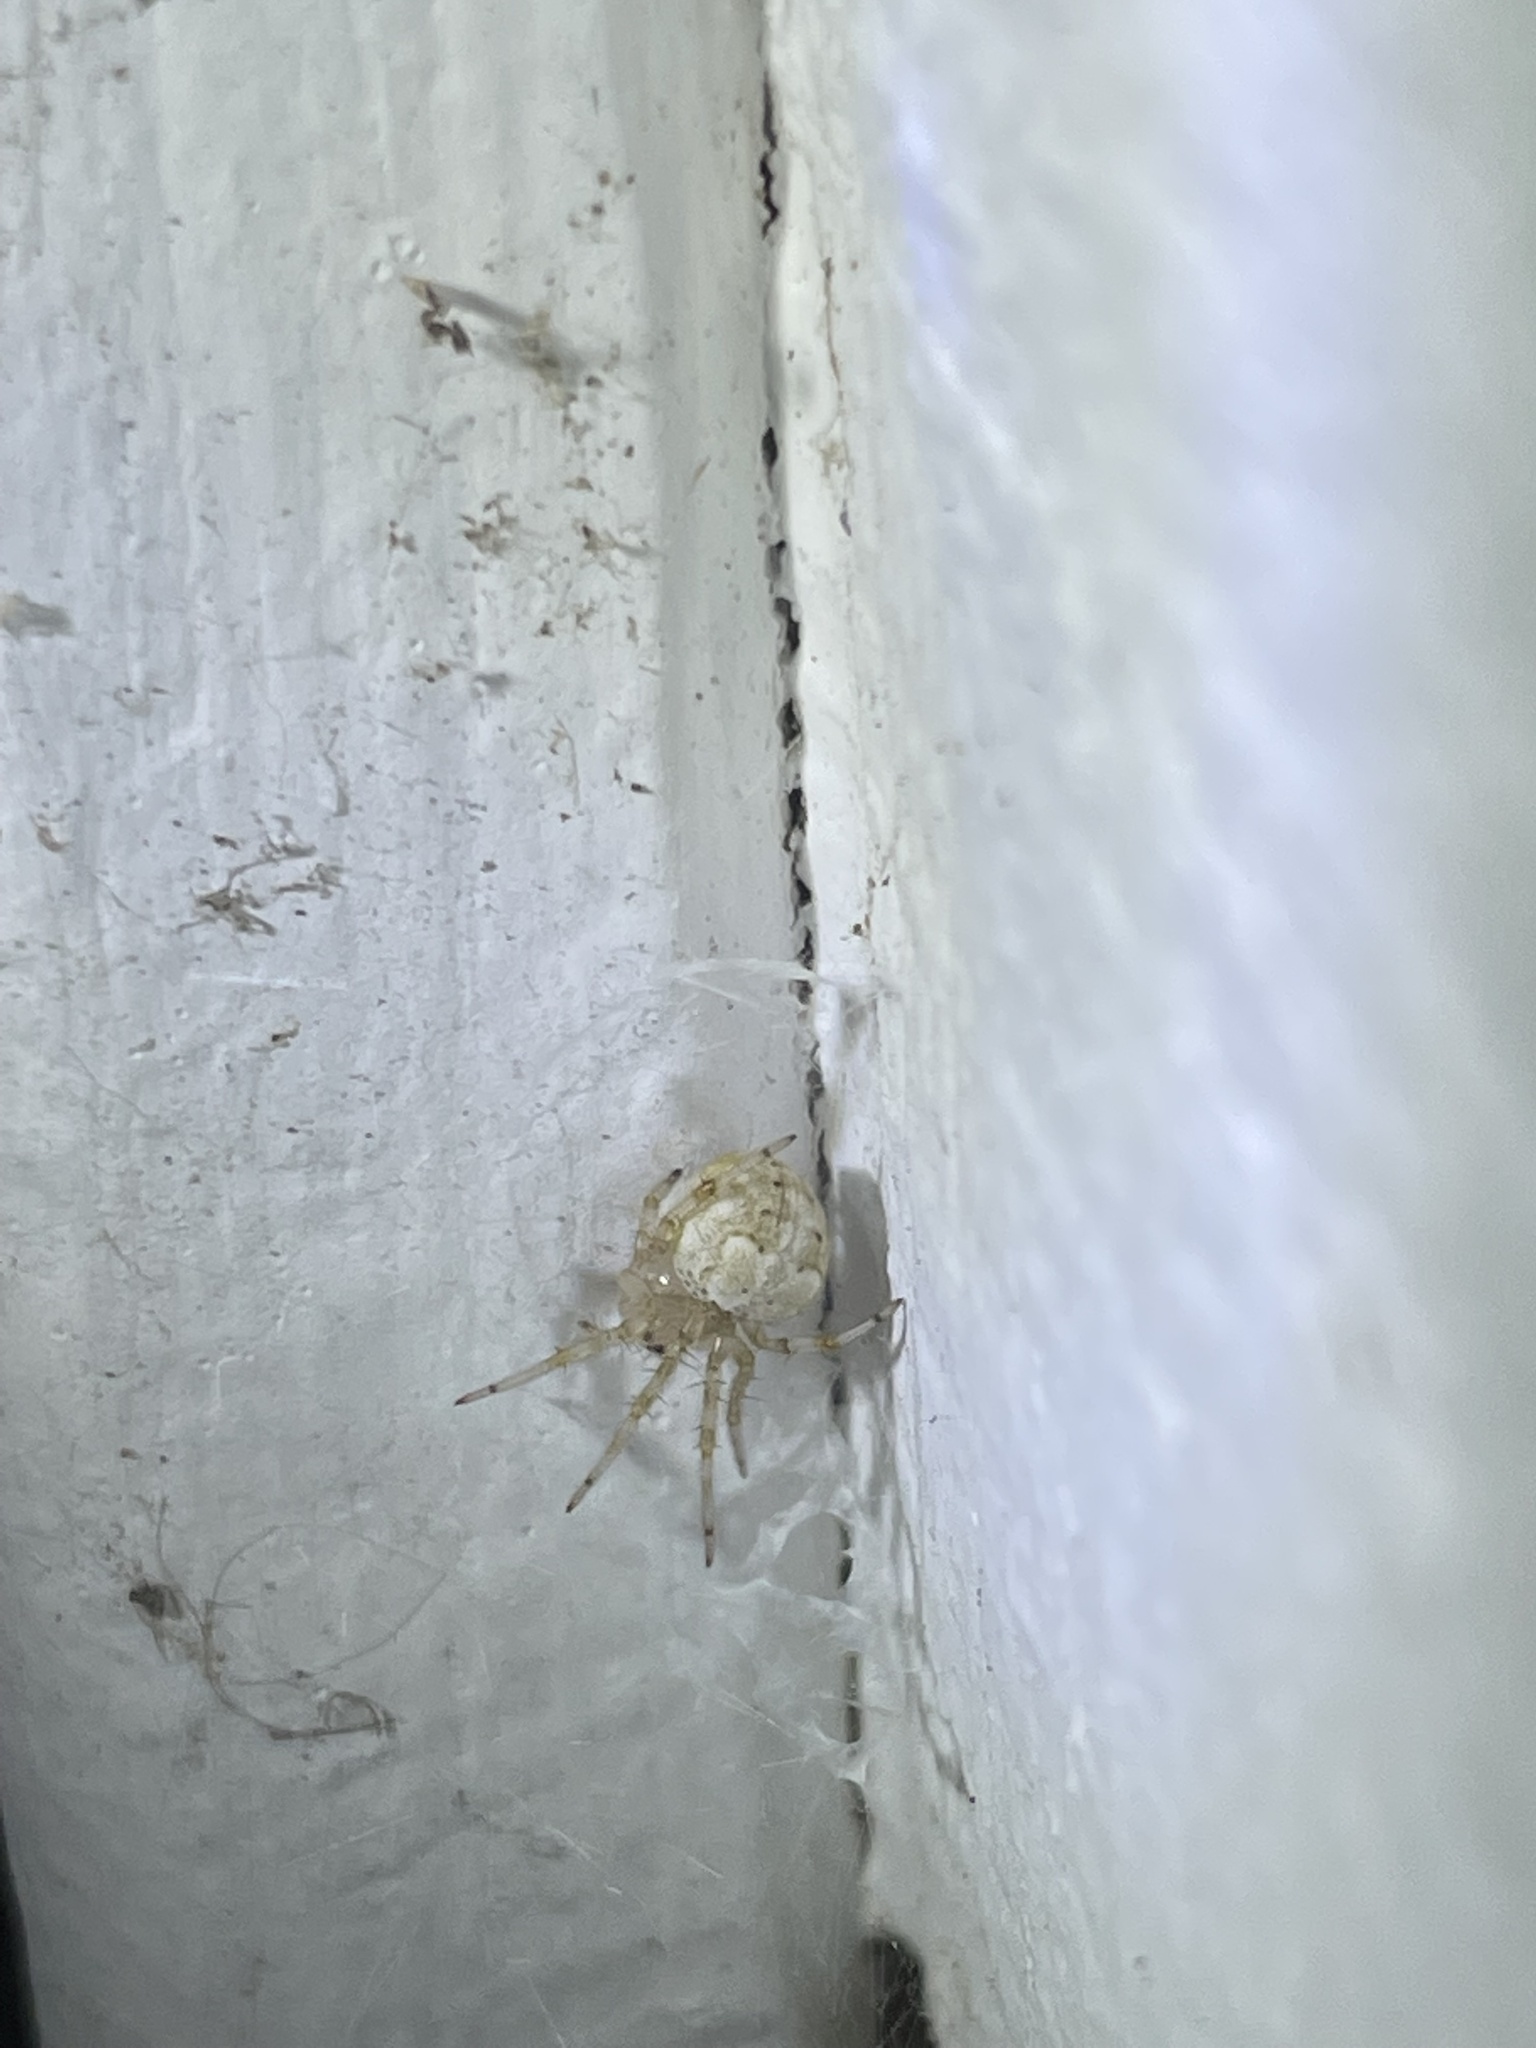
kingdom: Animalia
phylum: Arthropoda
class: Arachnida
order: Araneae
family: Araneidae
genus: Araneus
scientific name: Araneus pegnia
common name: Orb weavers
